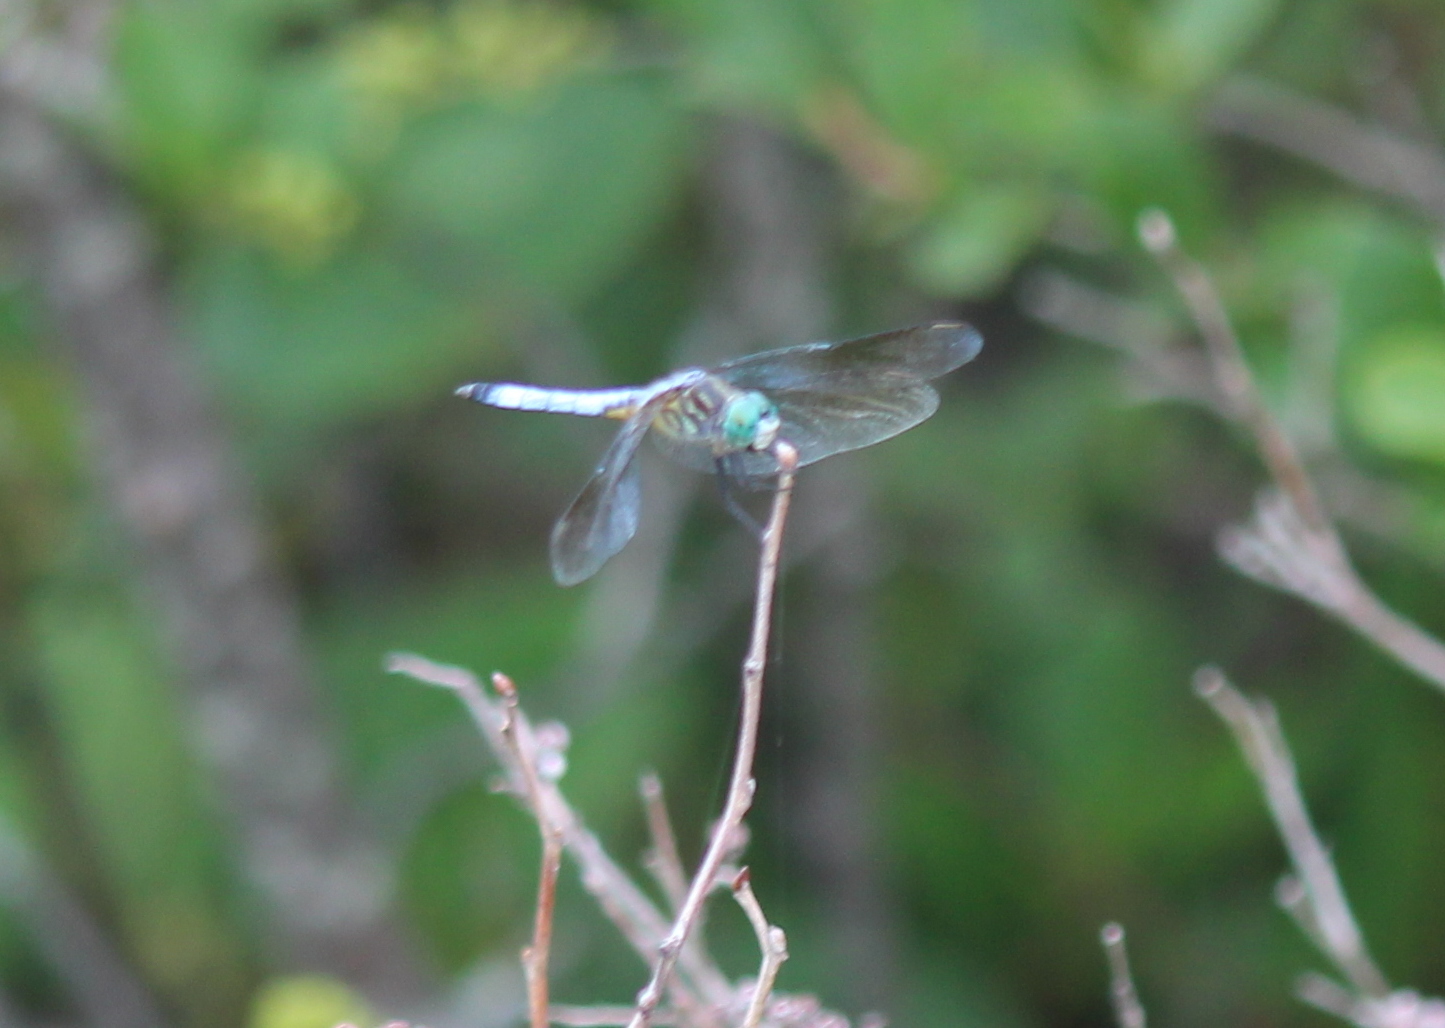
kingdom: Animalia
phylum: Arthropoda
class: Insecta
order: Odonata
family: Libellulidae
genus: Pachydiplax
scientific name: Pachydiplax longipennis
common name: Blue dasher
